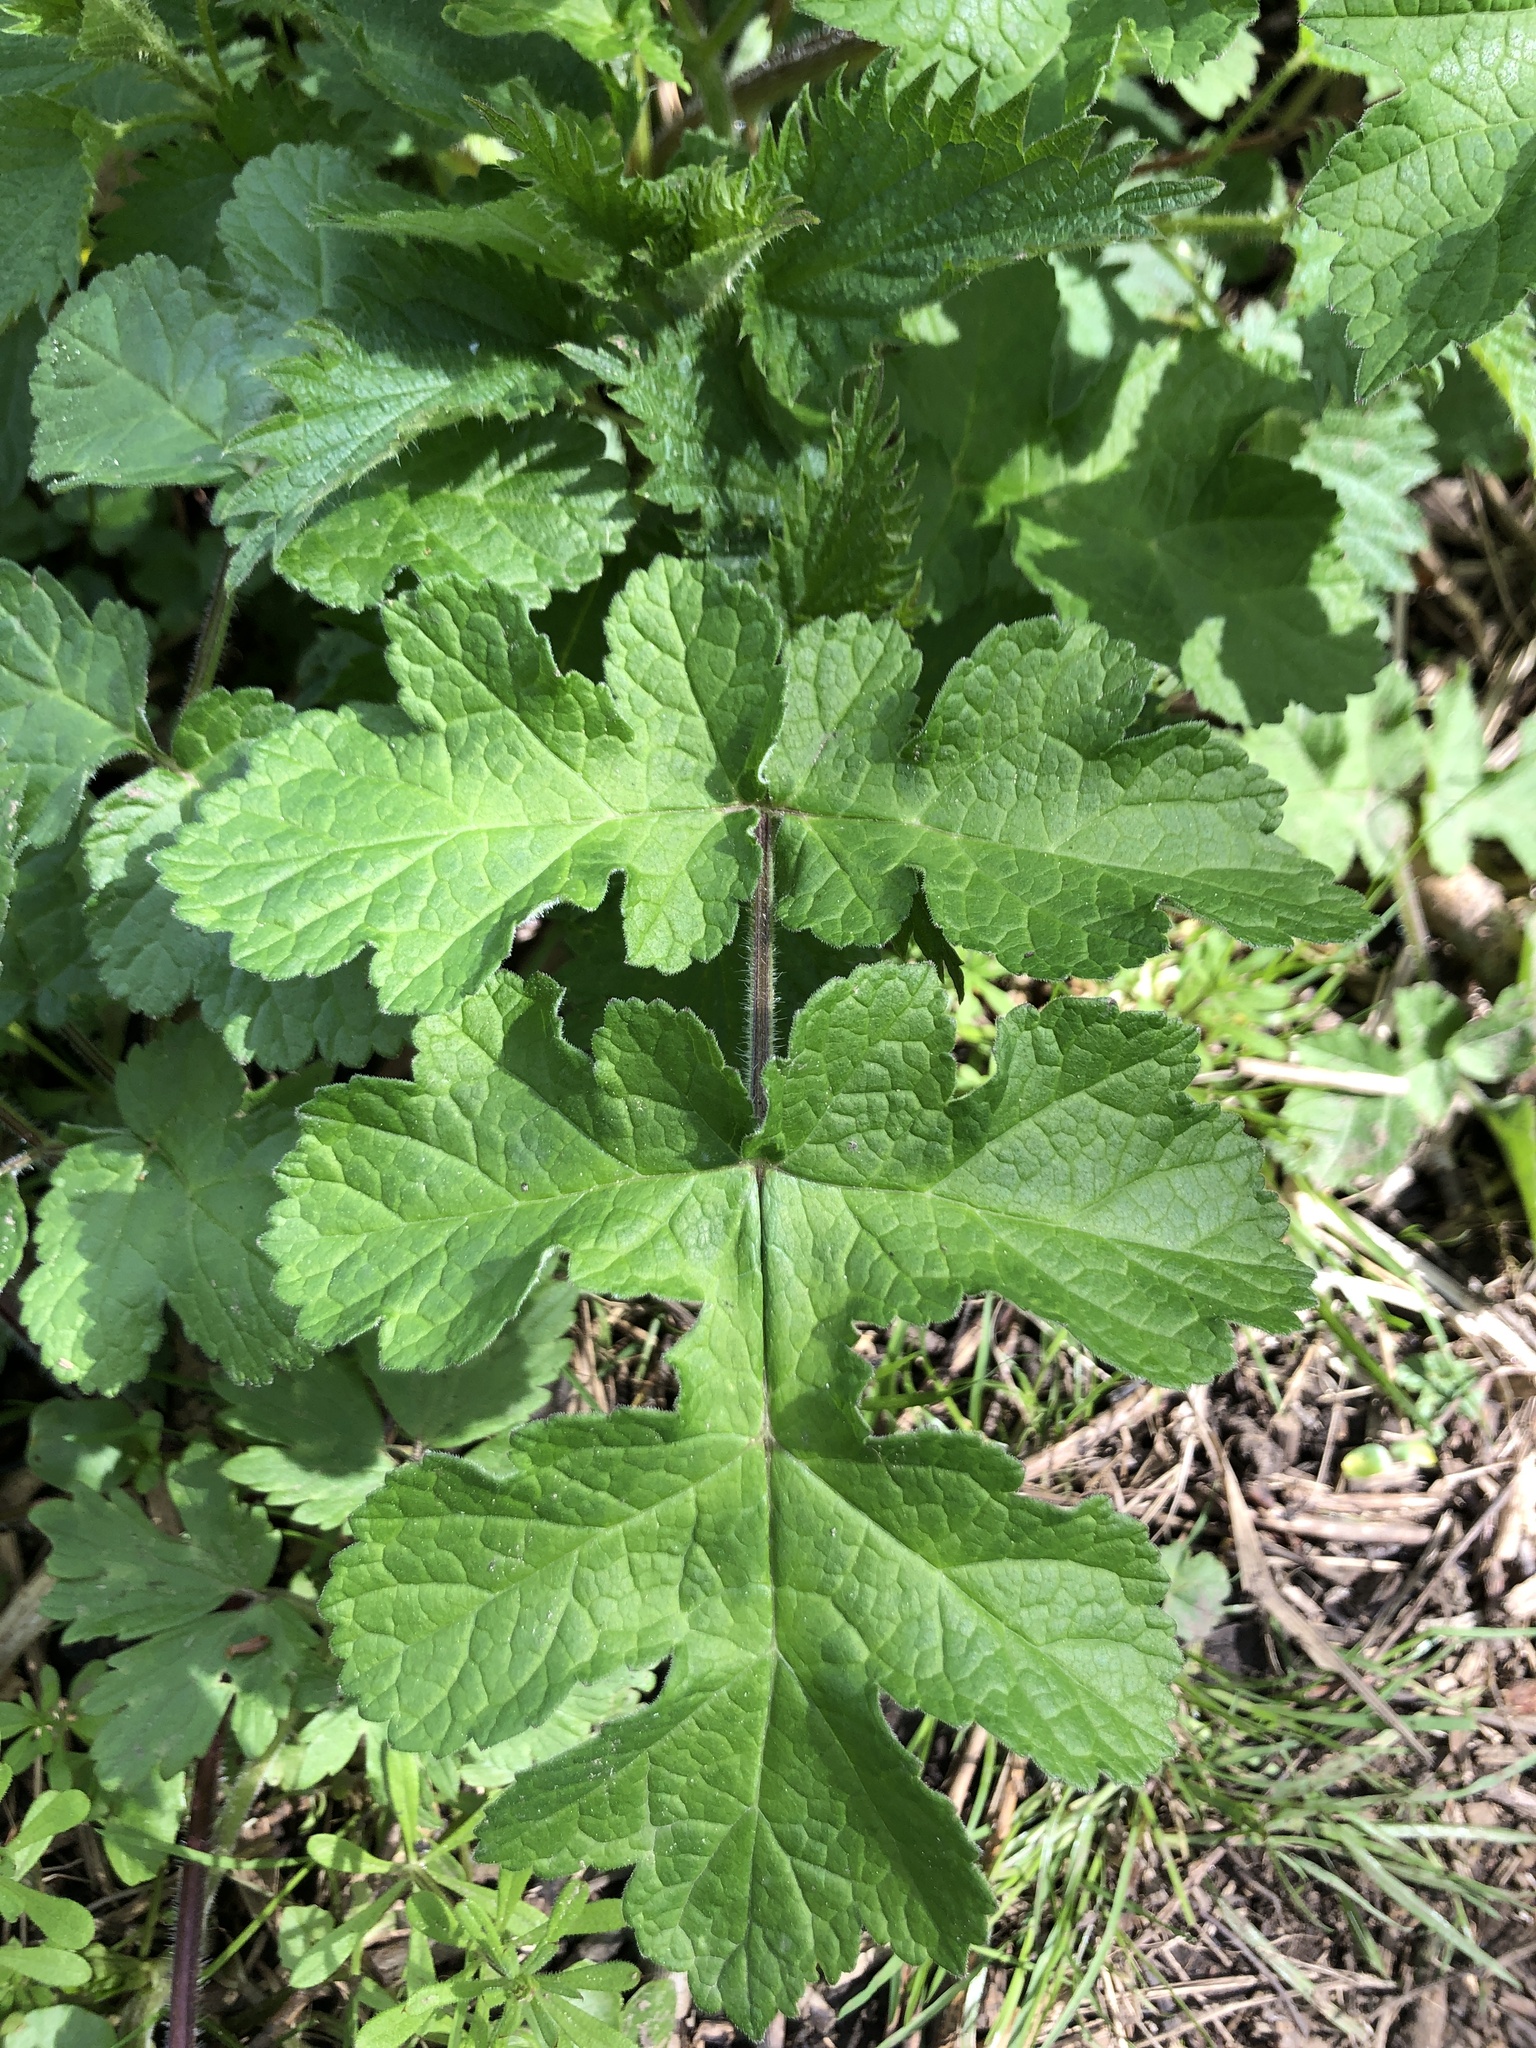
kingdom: Plantae
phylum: Tracheophyta
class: Magnoliopsida
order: Apiales
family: Apiaceae
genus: Heracleum
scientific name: Heracleum sphondylium
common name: Hogweed
